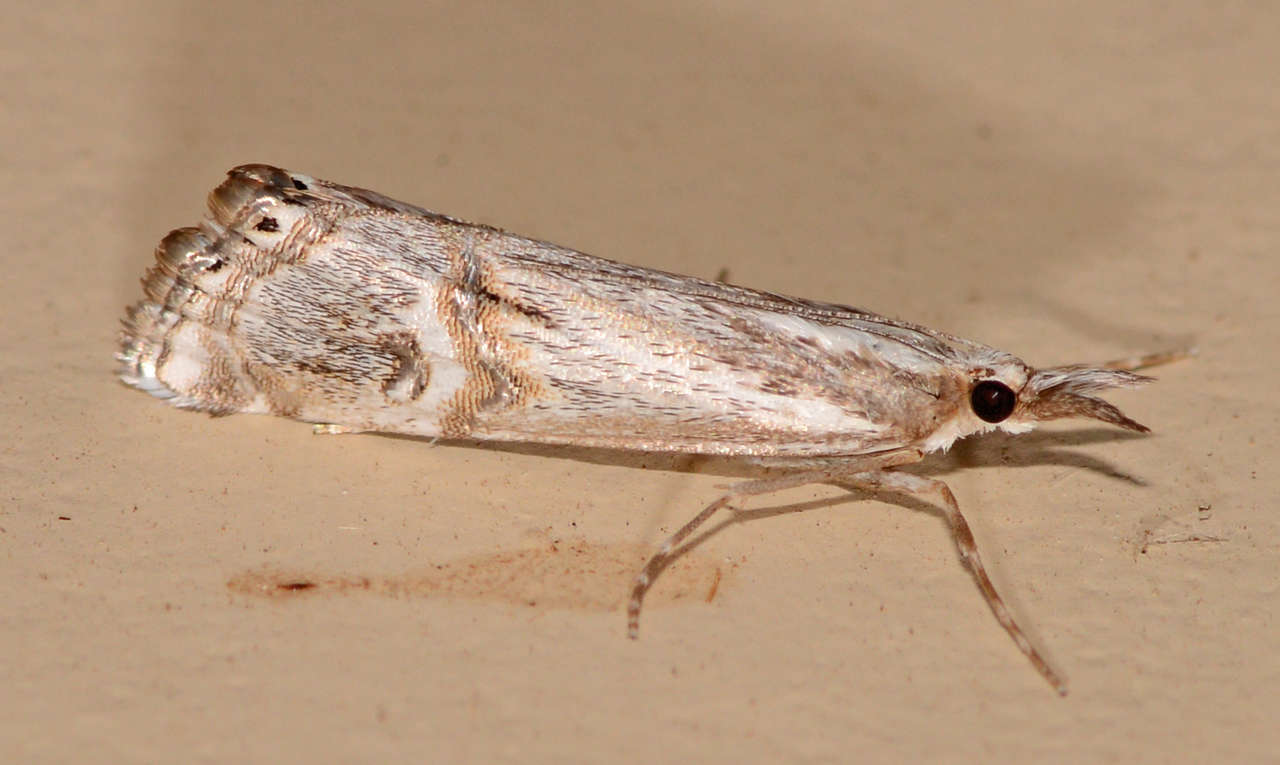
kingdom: Animalia
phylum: Arthropoda
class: Insecta
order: Lepidoptera
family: Crambidae
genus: Hednota
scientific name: Hednota longipalpella
